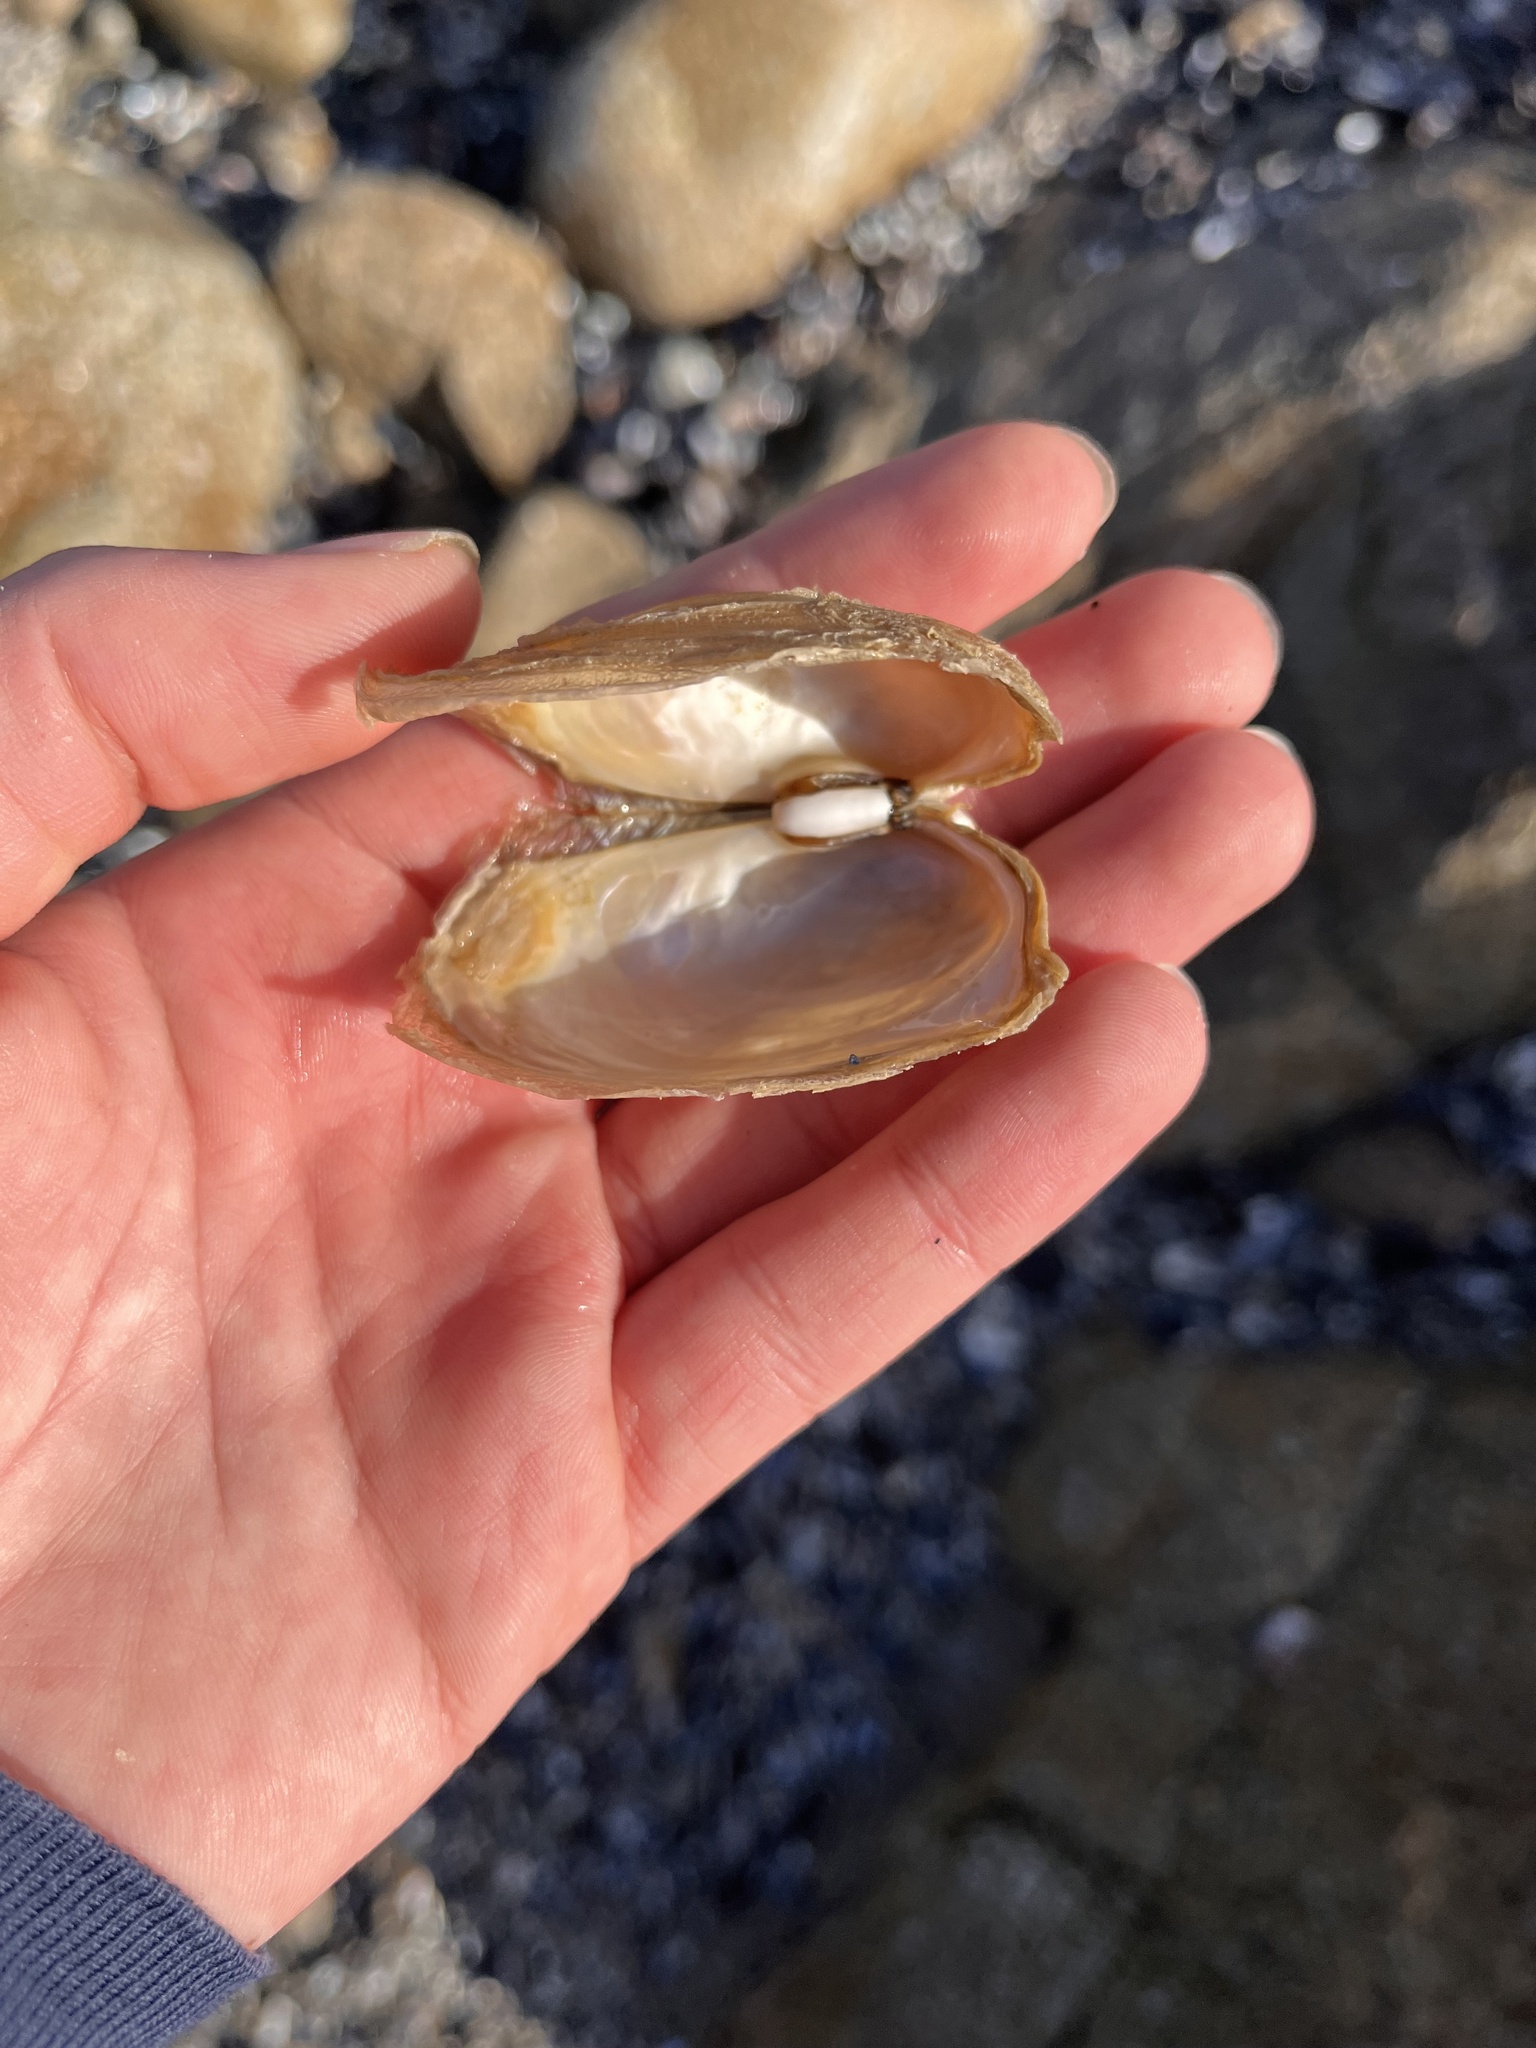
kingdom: Animalia
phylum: Mollusca
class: Bivalvia
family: Lyonsiidae
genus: Entodesma
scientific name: Entodesma navicula
